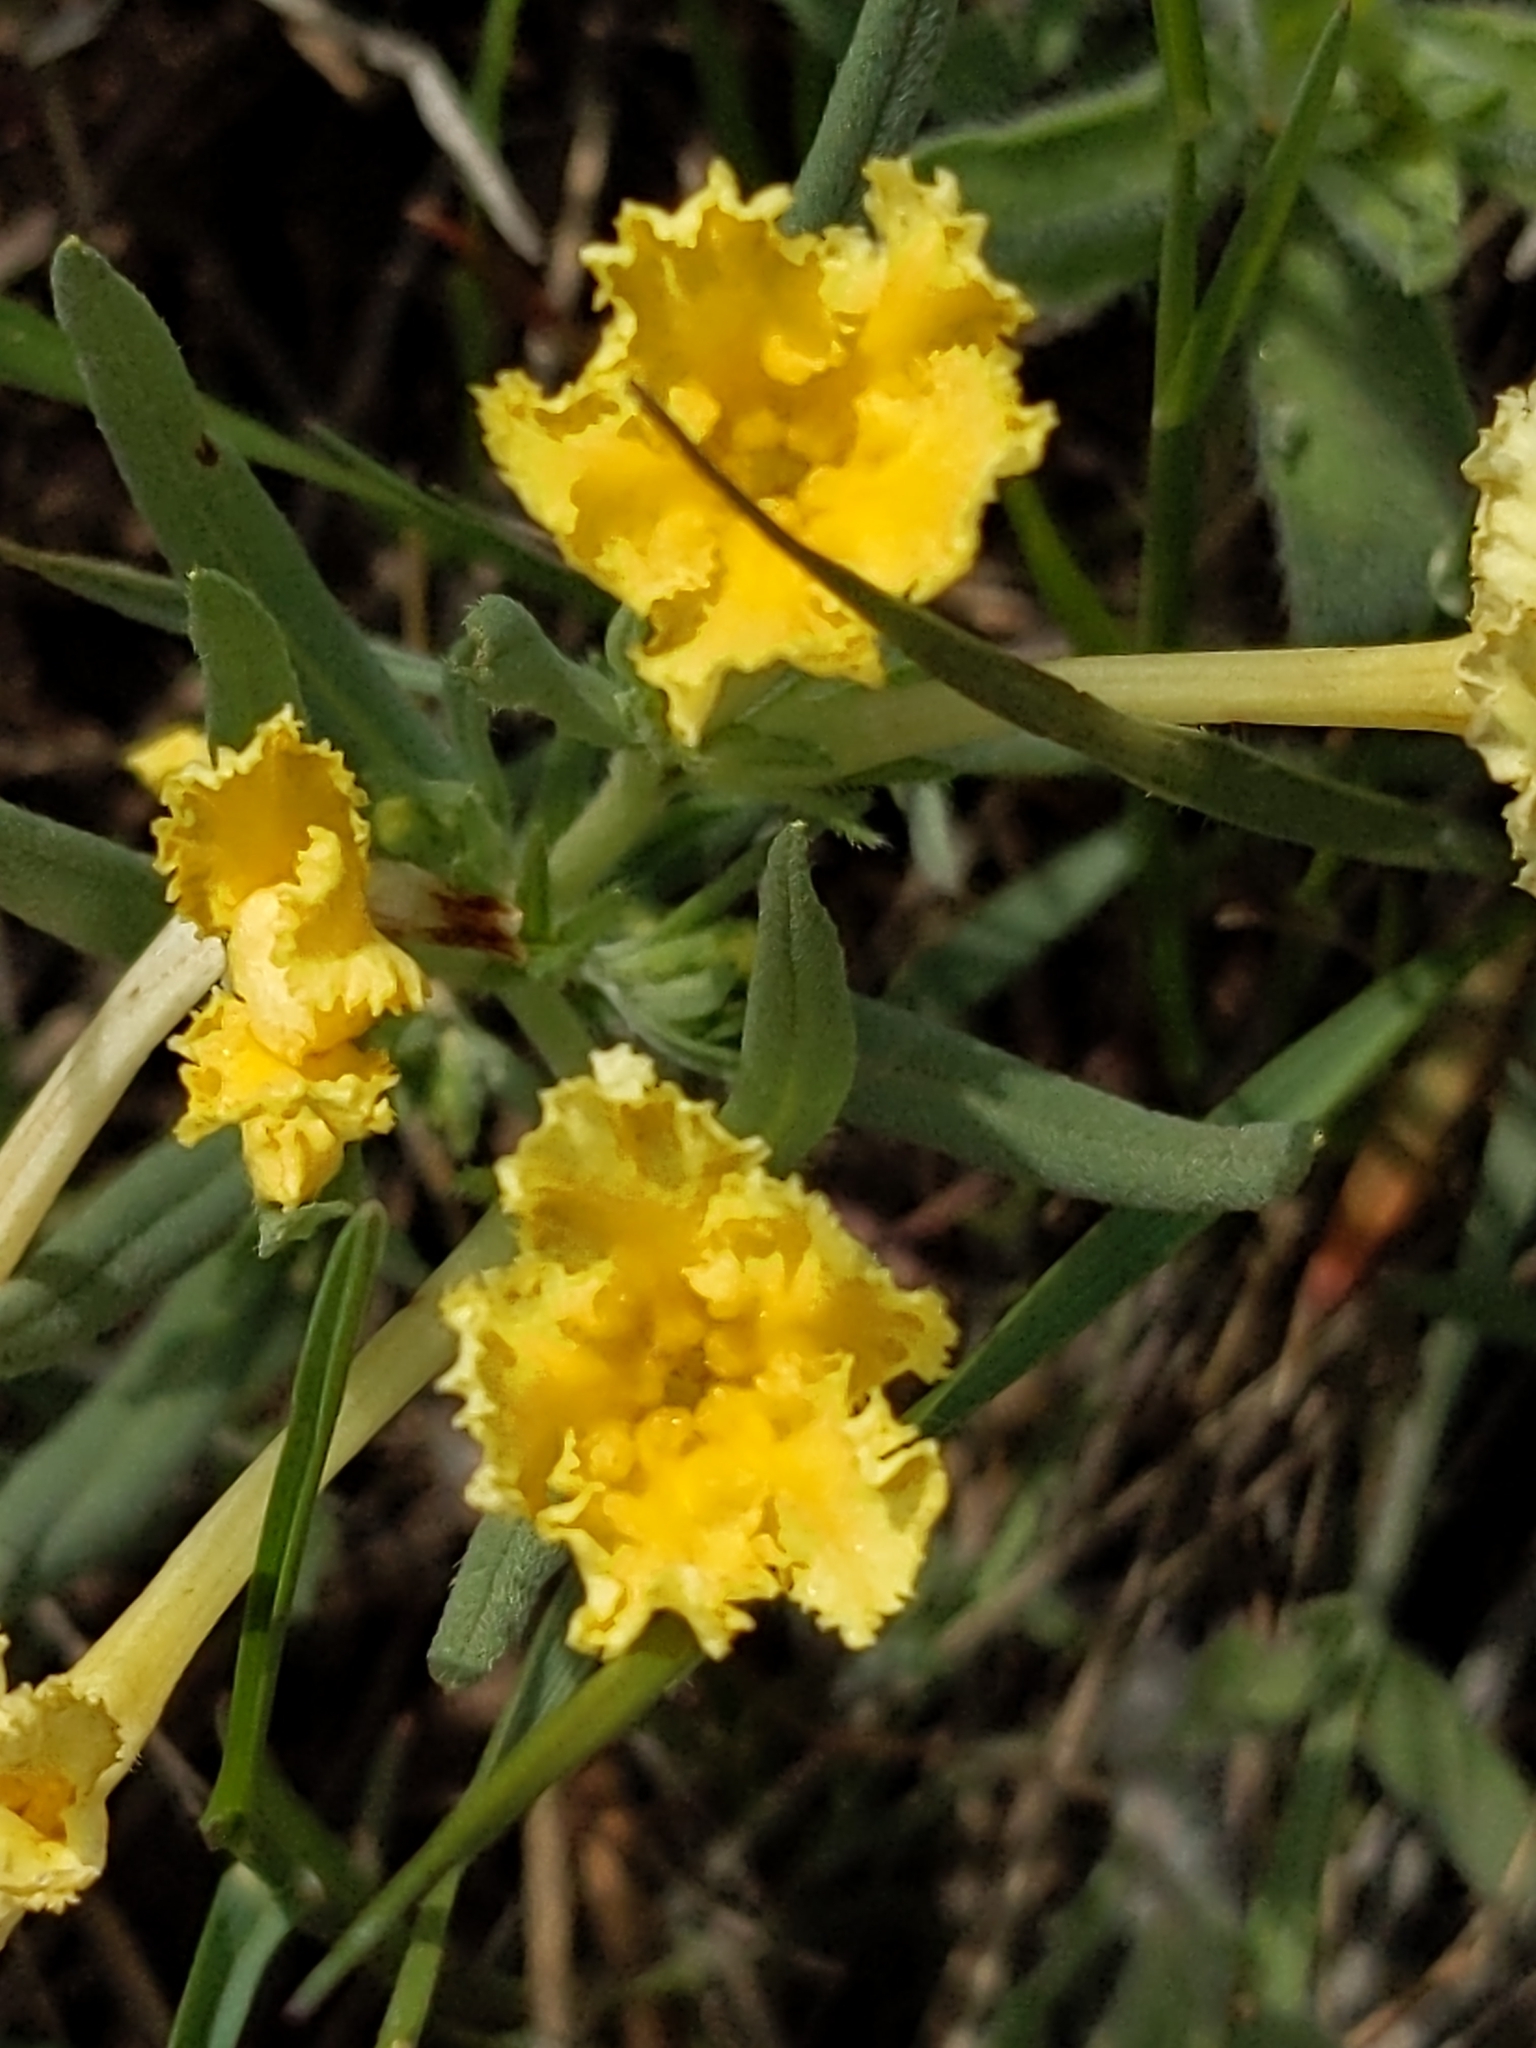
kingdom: Plantae
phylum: Tracheophyta
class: Magnoliopsida
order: Boraginales
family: Boraginaceae
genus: Lithospermum
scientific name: Lithospermum incisum
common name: Fringed gromwell
